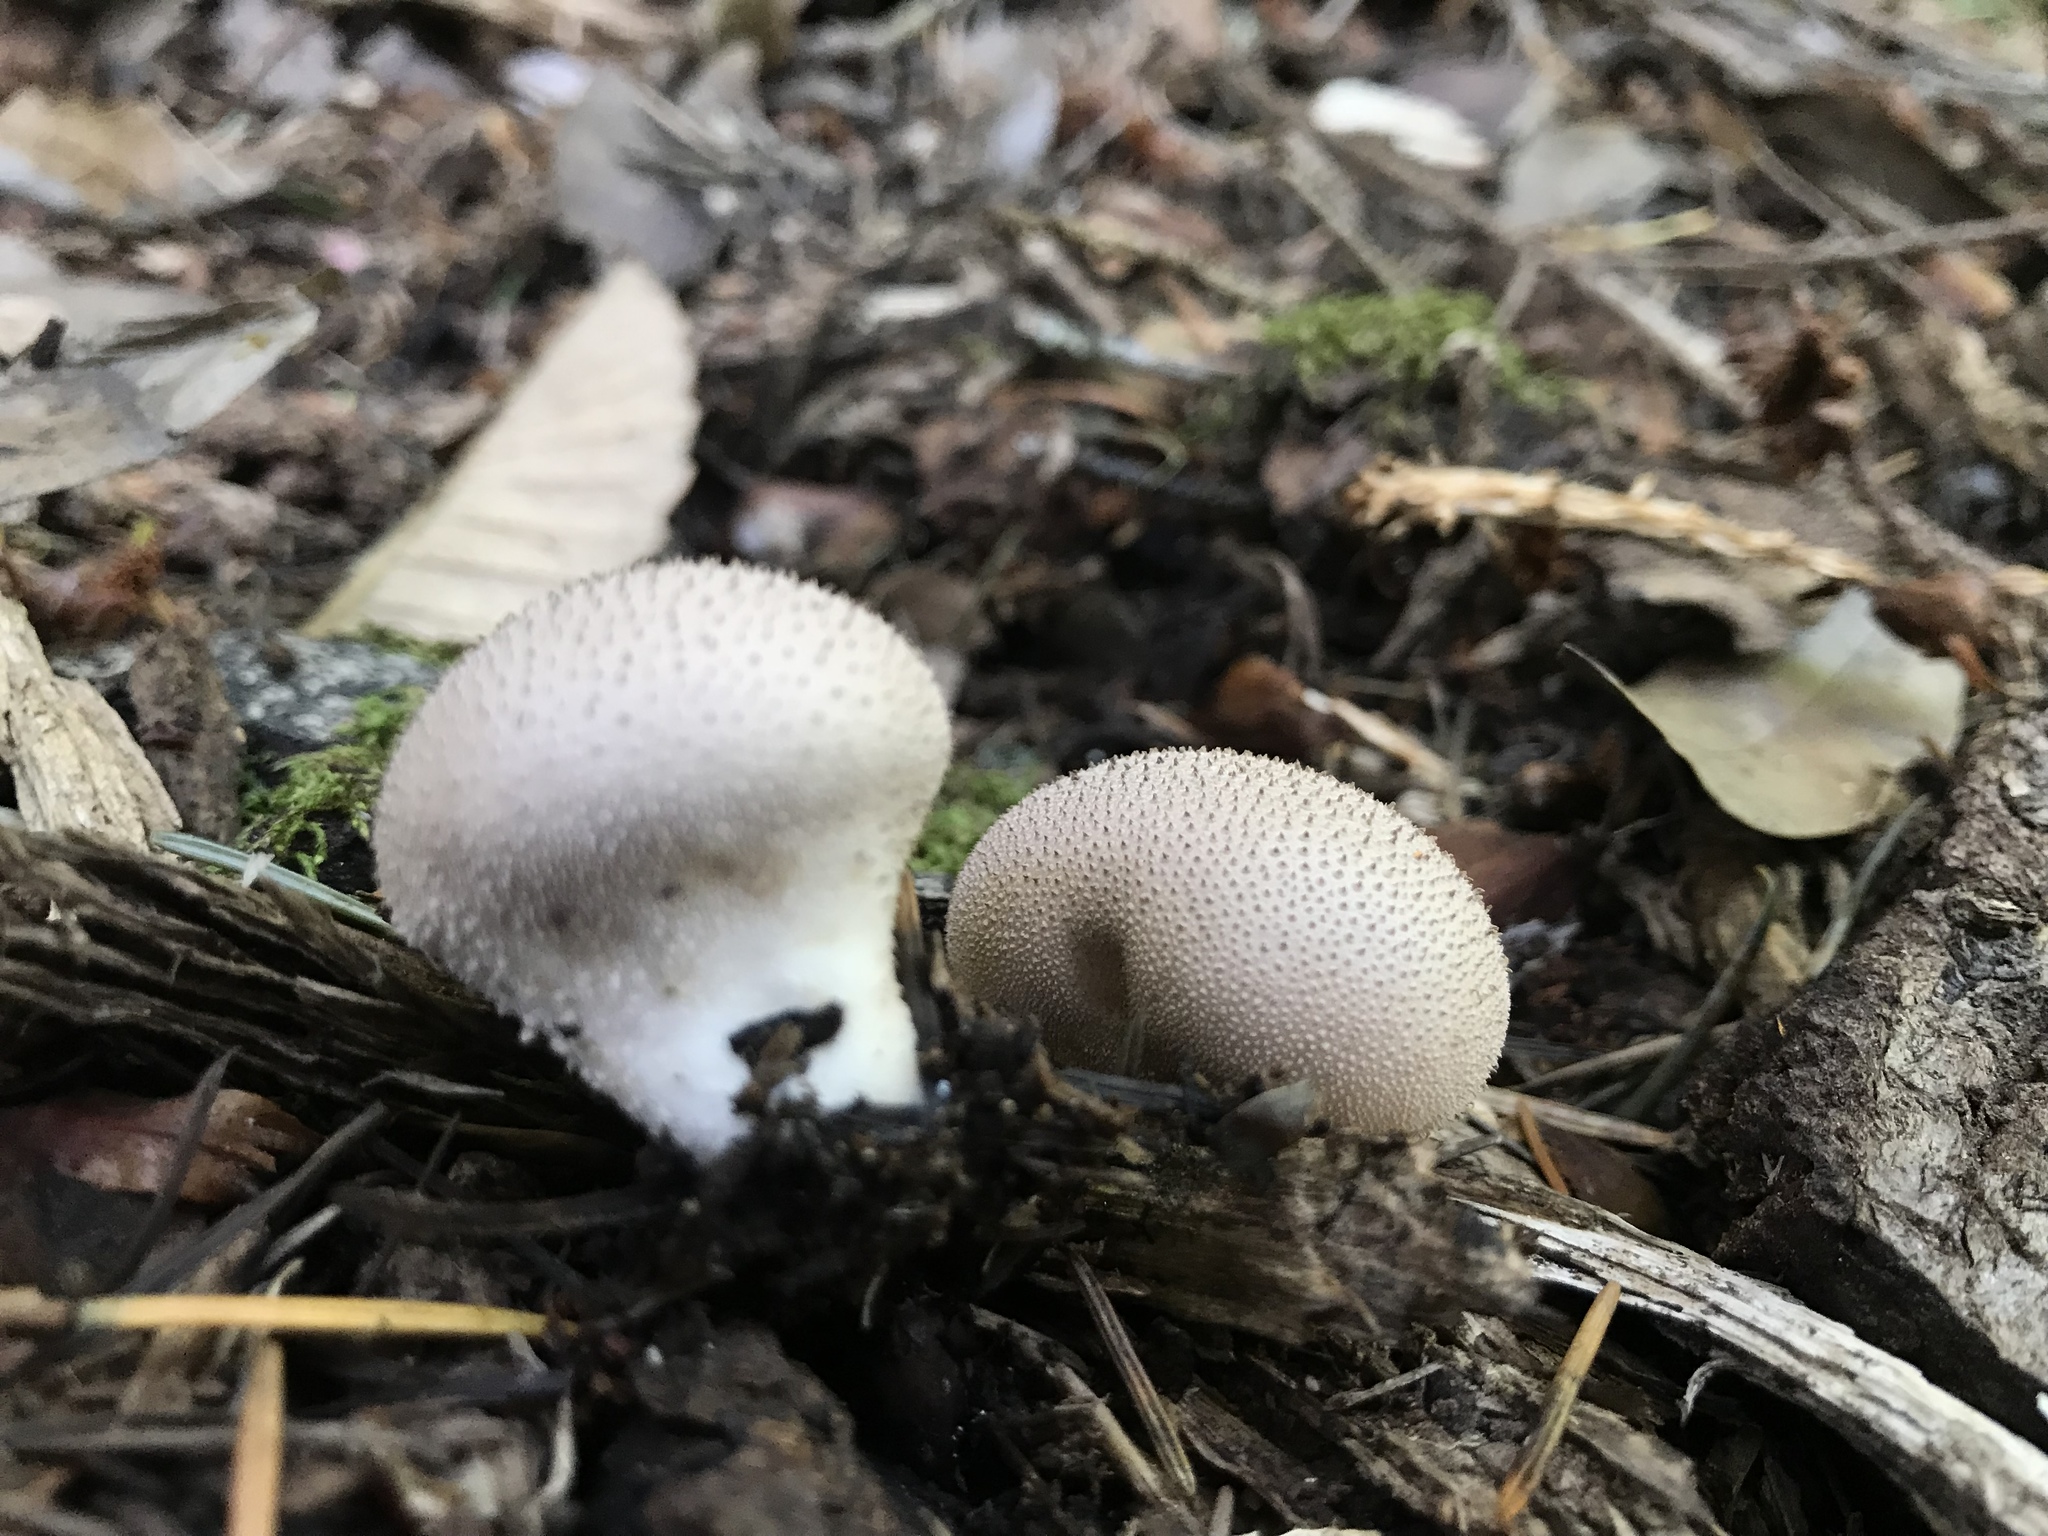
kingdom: Fungi
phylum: Basidiomycota
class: Agaricomycetes
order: Agaricales
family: Lycoperdaceae
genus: Lycoperdon
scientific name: Lycoperdon perlatum
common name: Common puffball
